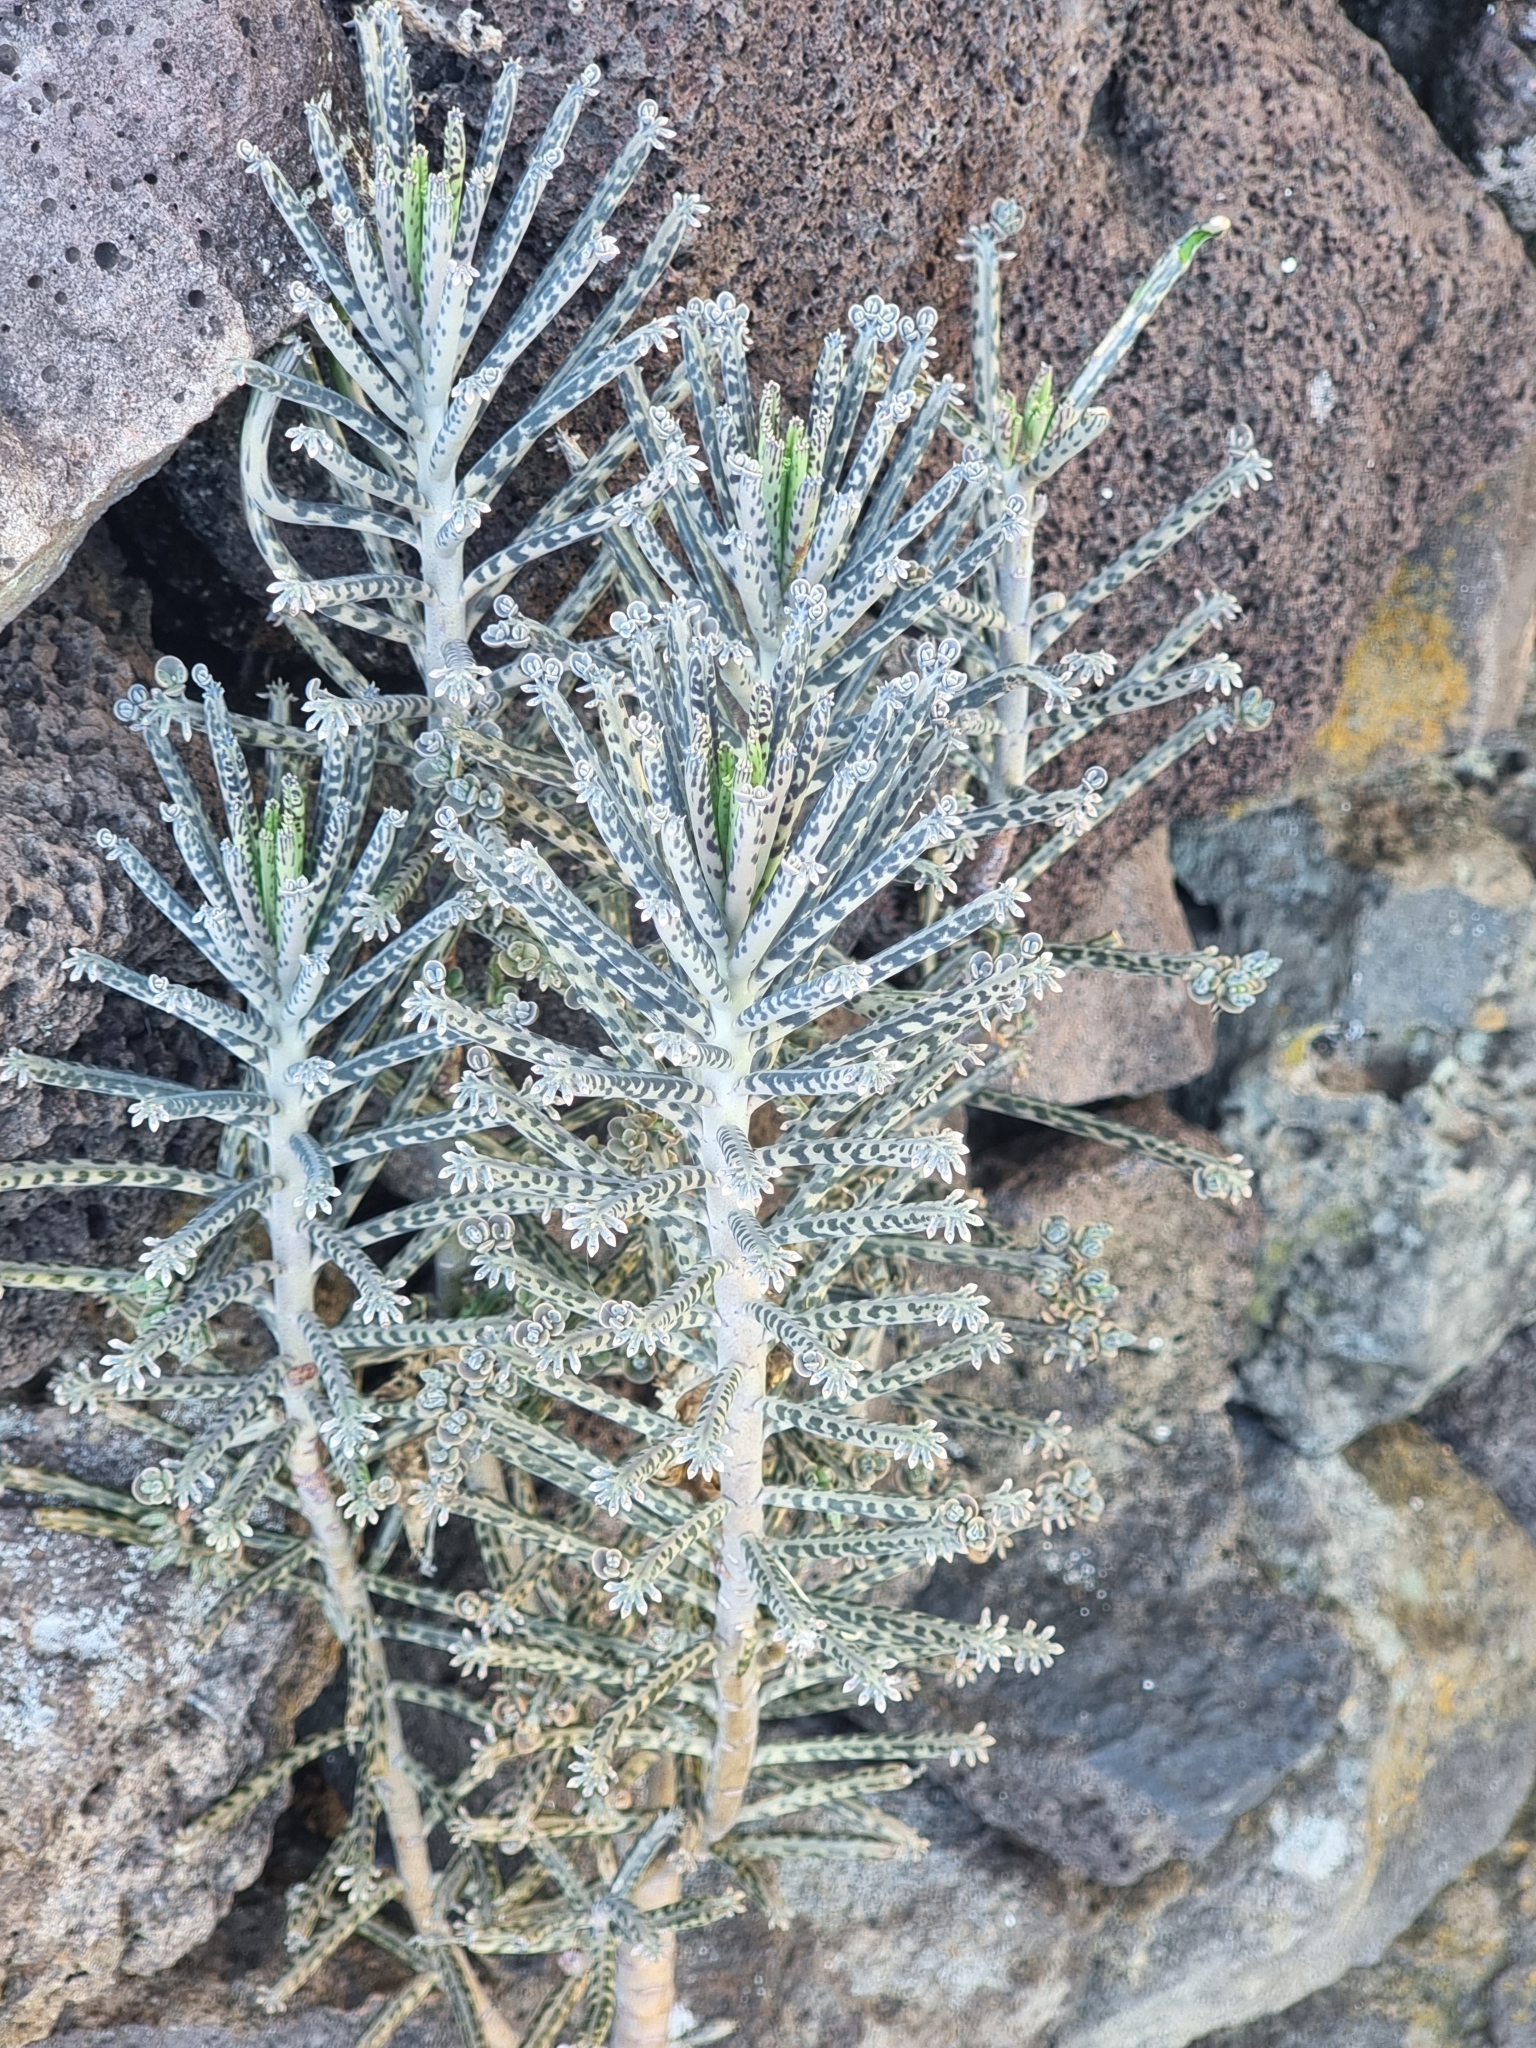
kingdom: Plantae
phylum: Tracheophyta
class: Magnoliopsida
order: Saxifragales
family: Crassulaceae
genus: Kalanchoe
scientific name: Kalanchoe delagoensis
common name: Chandelier plant
